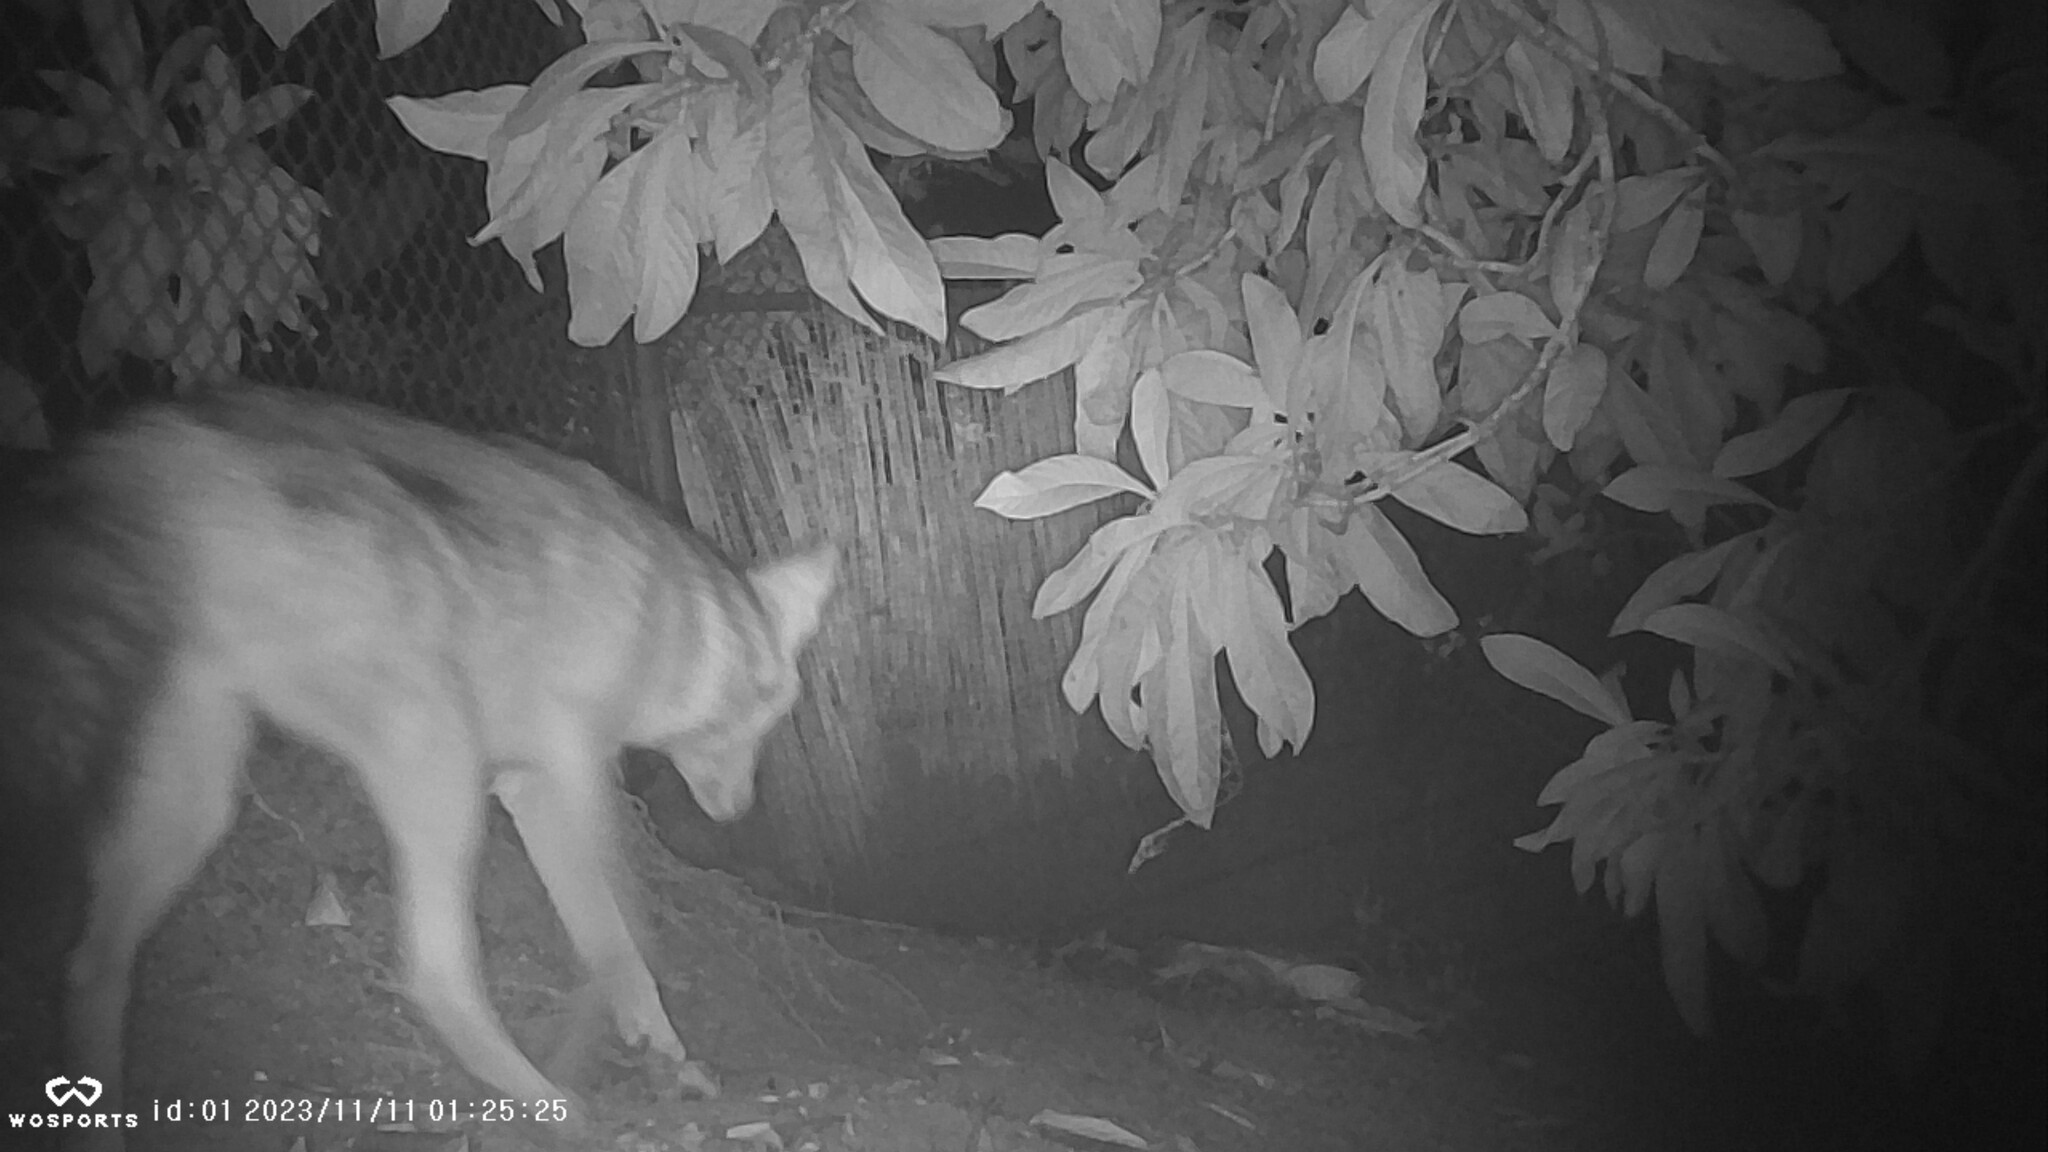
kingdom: Animalia
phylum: Chordata
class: Mammalia
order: Carnivora
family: Canidae
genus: Canis
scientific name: Canis latrans
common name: Coyote
